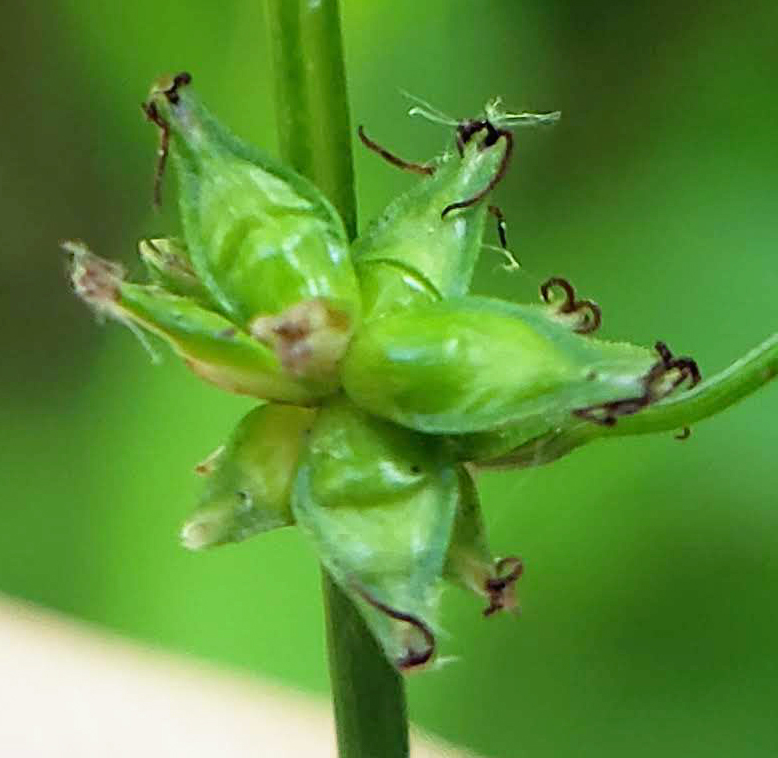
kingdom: Plantae
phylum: Tracheophyta
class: Liliopsida
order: Poales
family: Cyperaceae
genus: Carex
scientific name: Carex radiata
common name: Eastern star sedge
